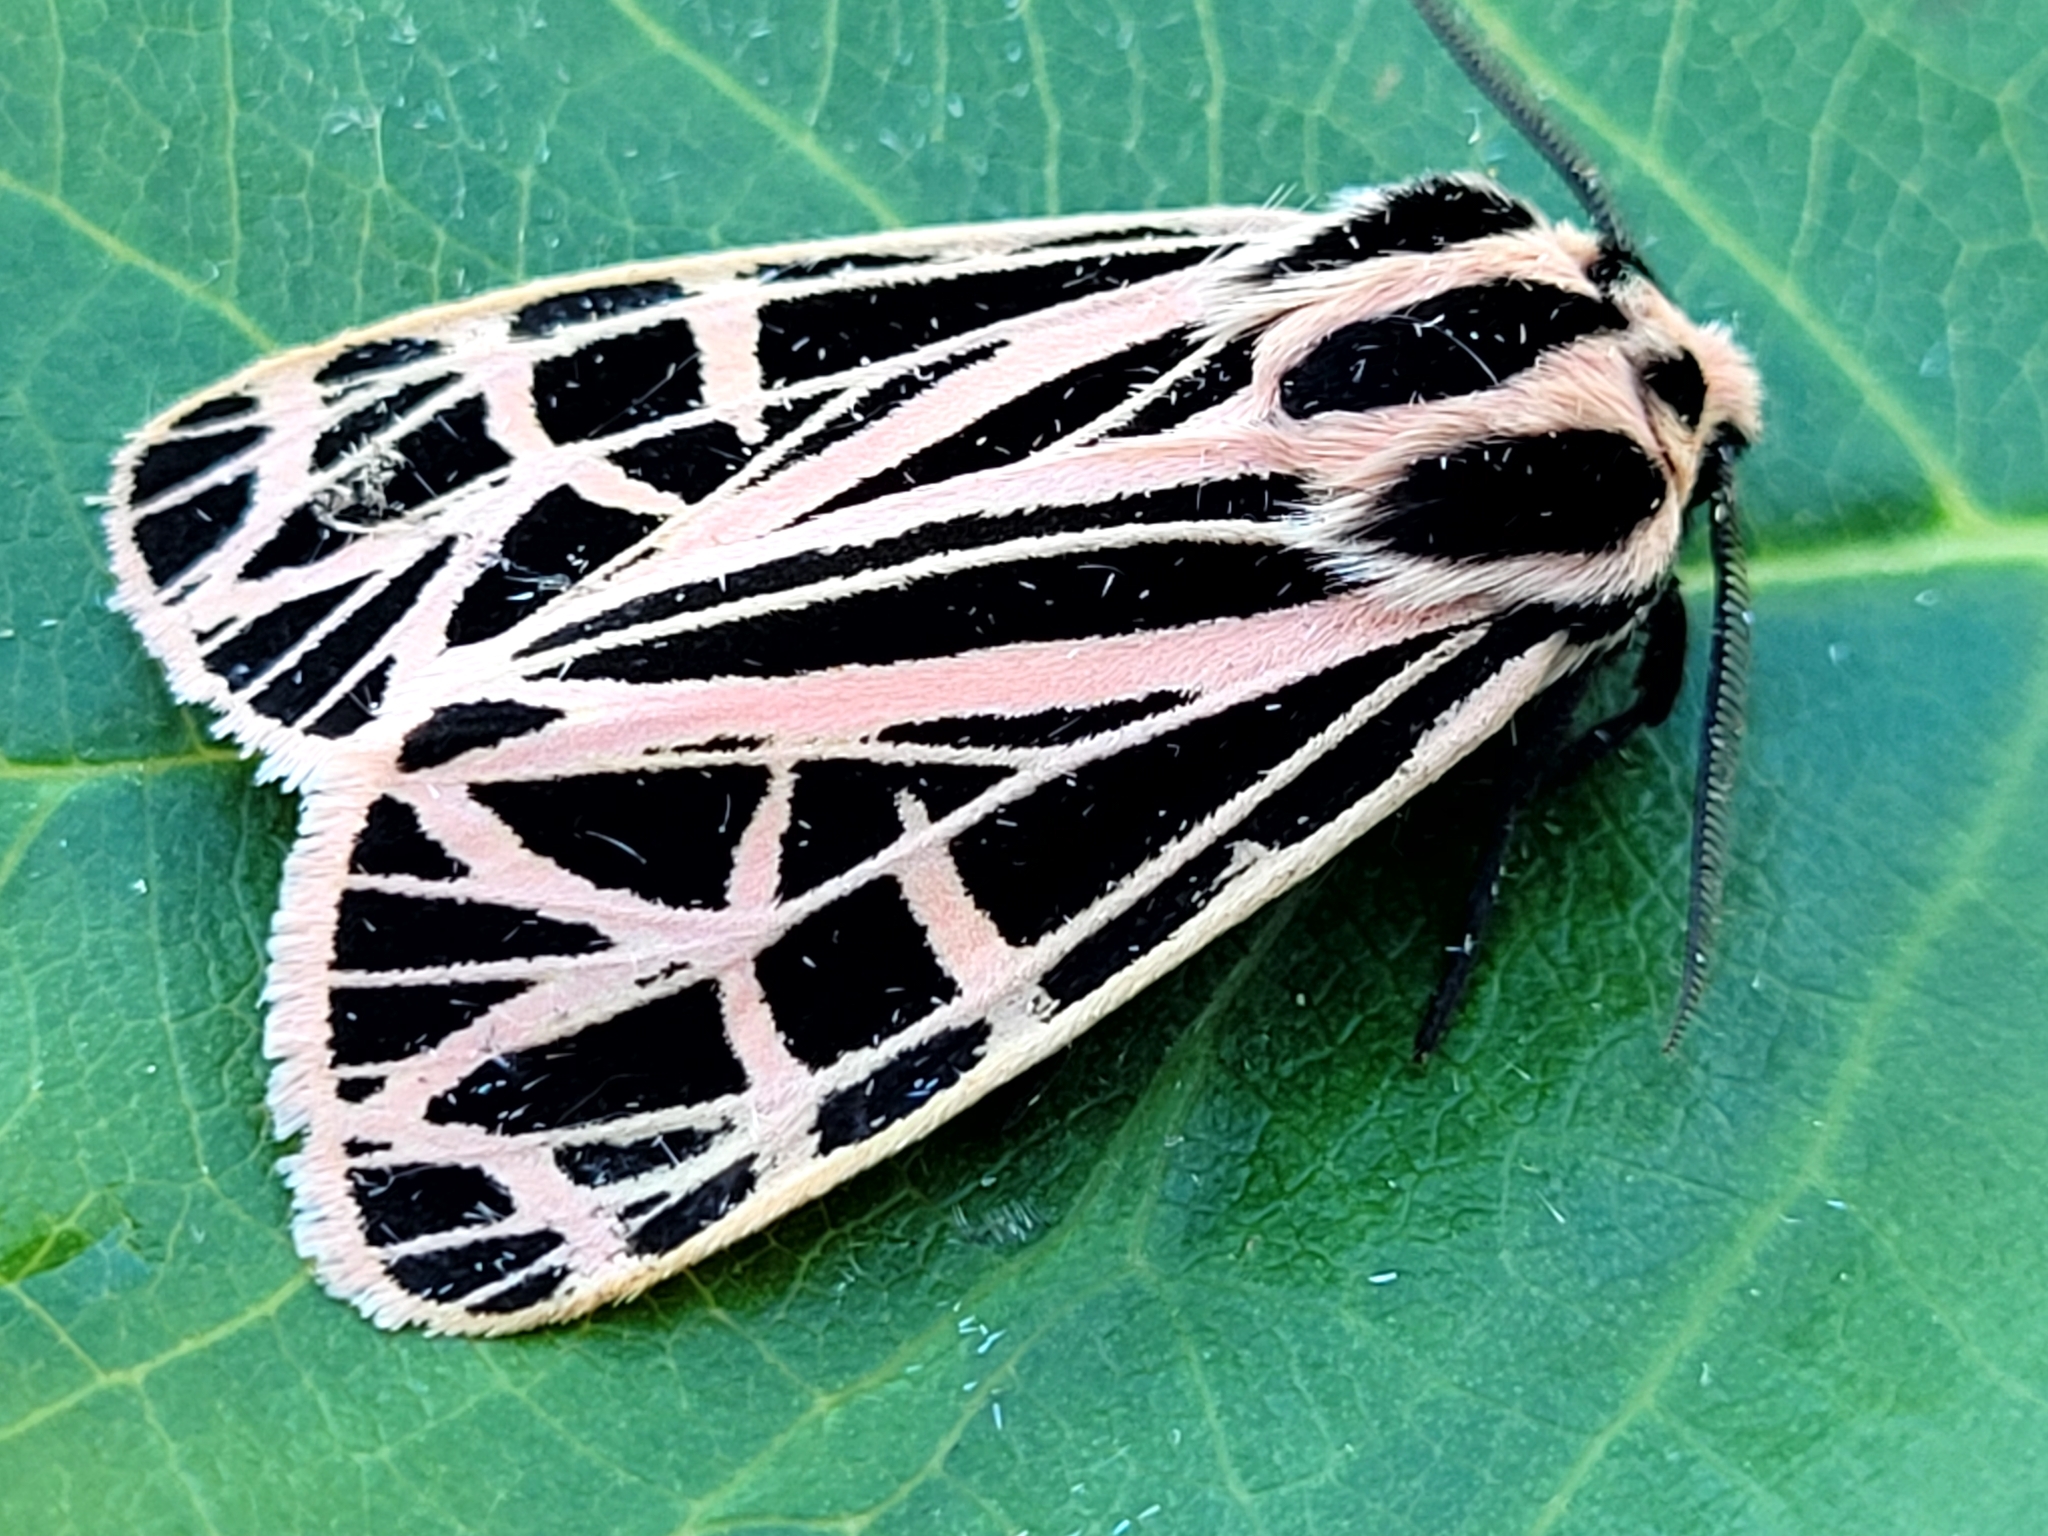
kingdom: Animalia
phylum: Arthropoda
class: Insecta
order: Lepidoptera
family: Erebidae
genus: Grammia
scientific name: Grammia parthenice
